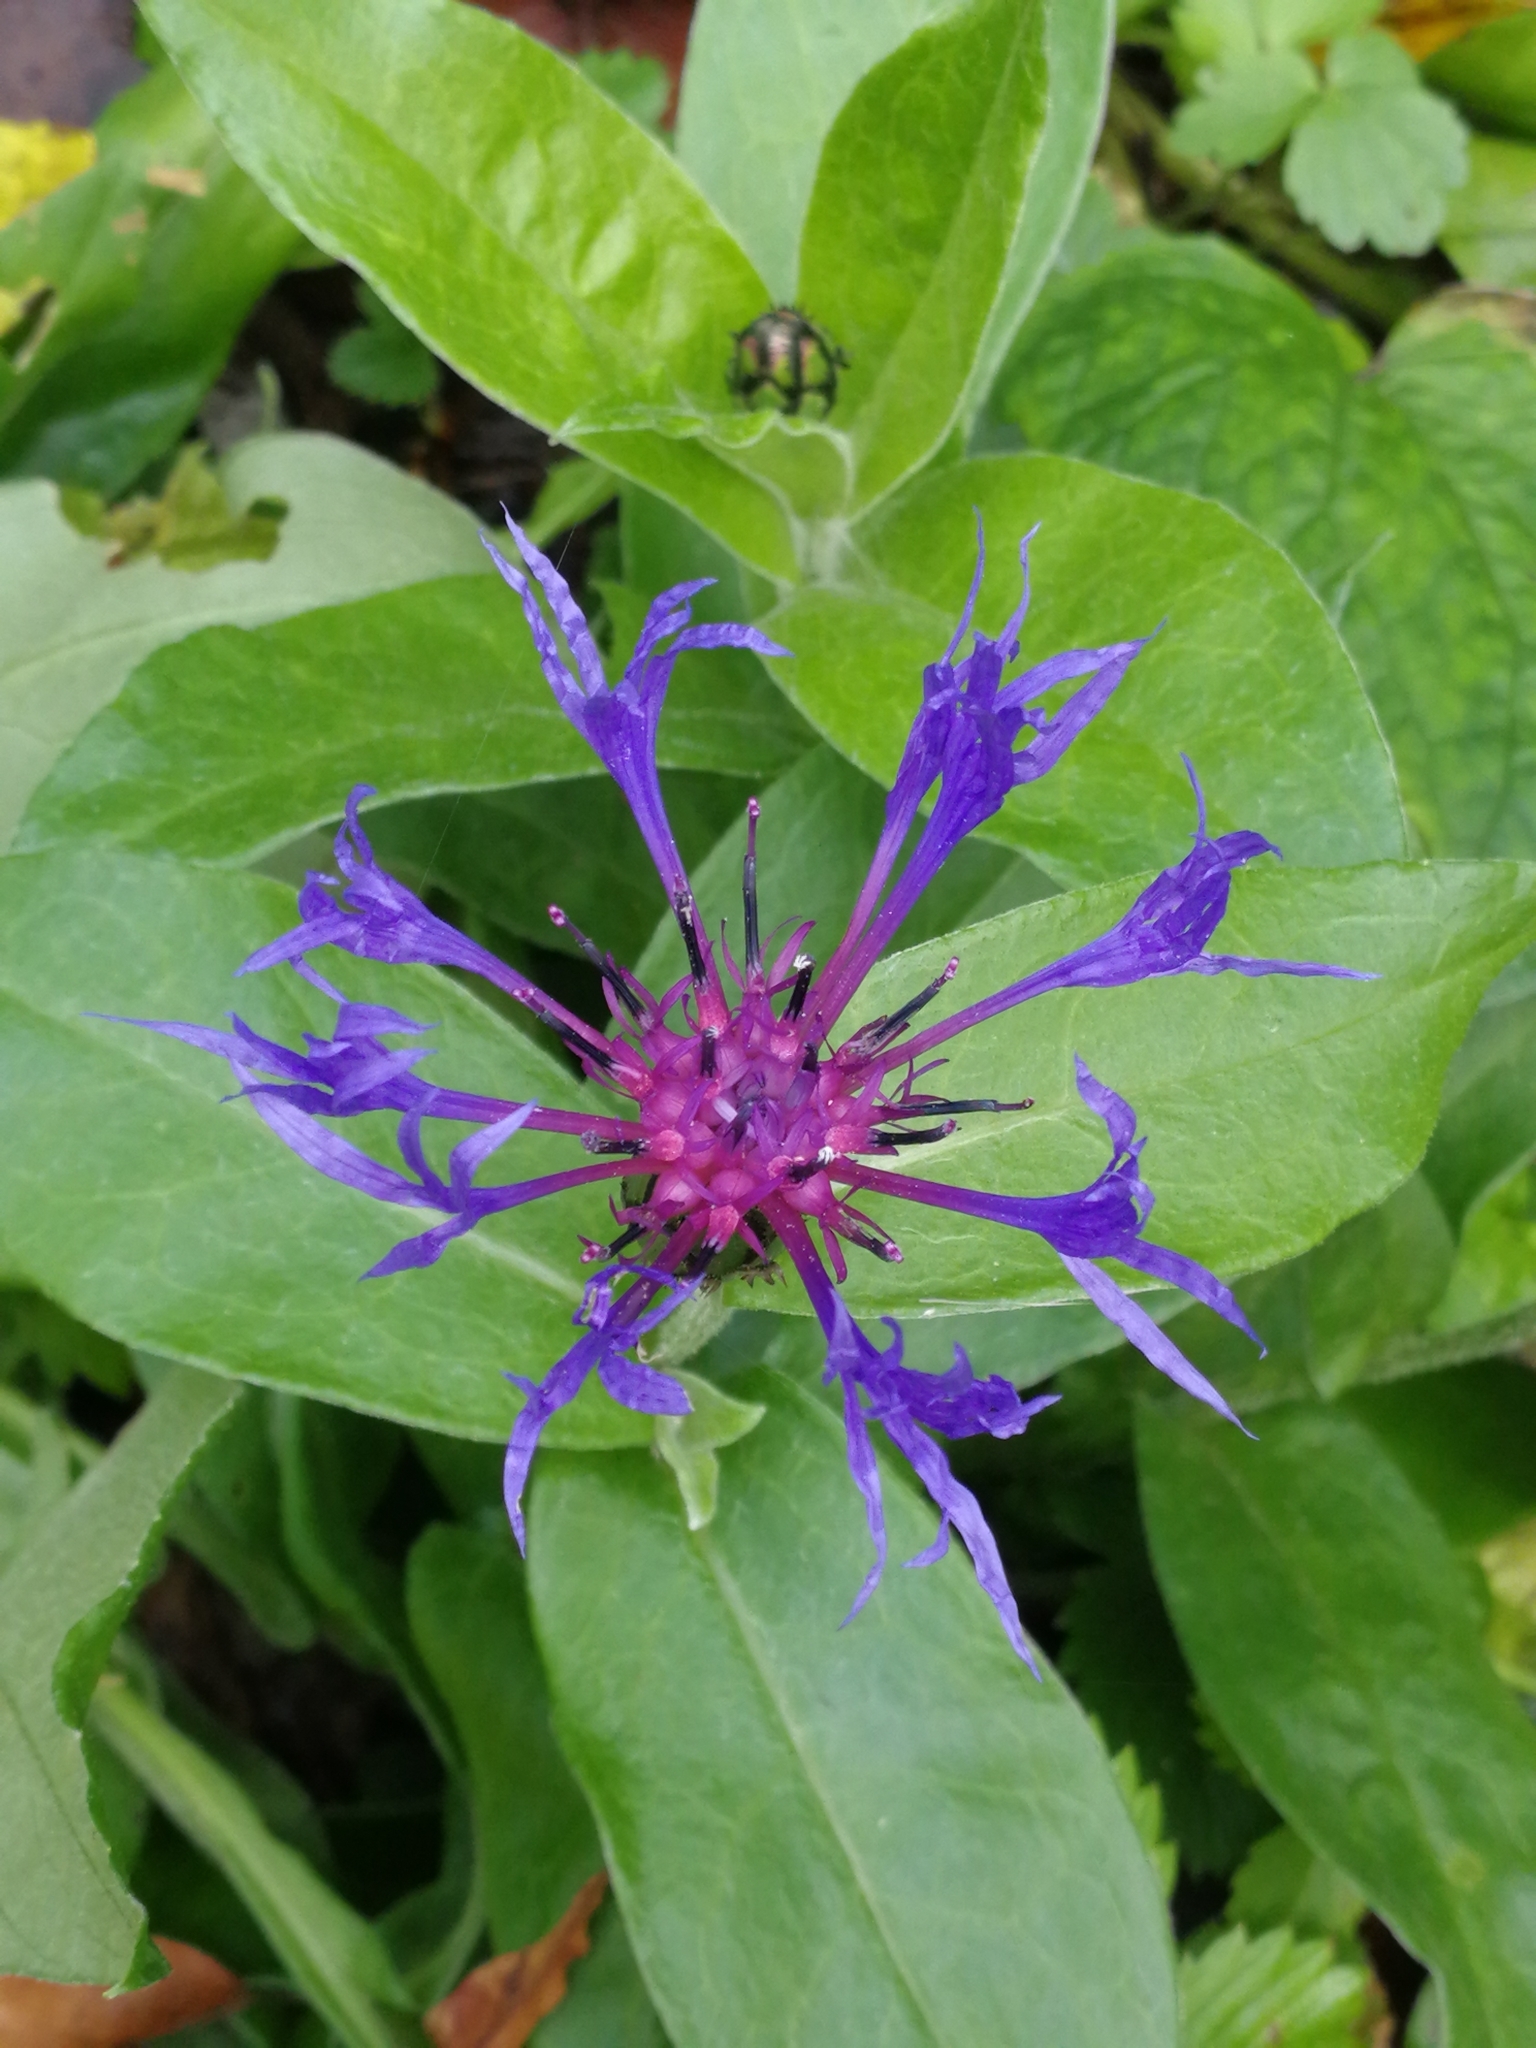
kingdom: Plantae
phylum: Tracheophyta
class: Magnoliopsida
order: Asterales
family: Asteraceae
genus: Centaurea
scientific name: Centaurea montana
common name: Perennial cornflower
